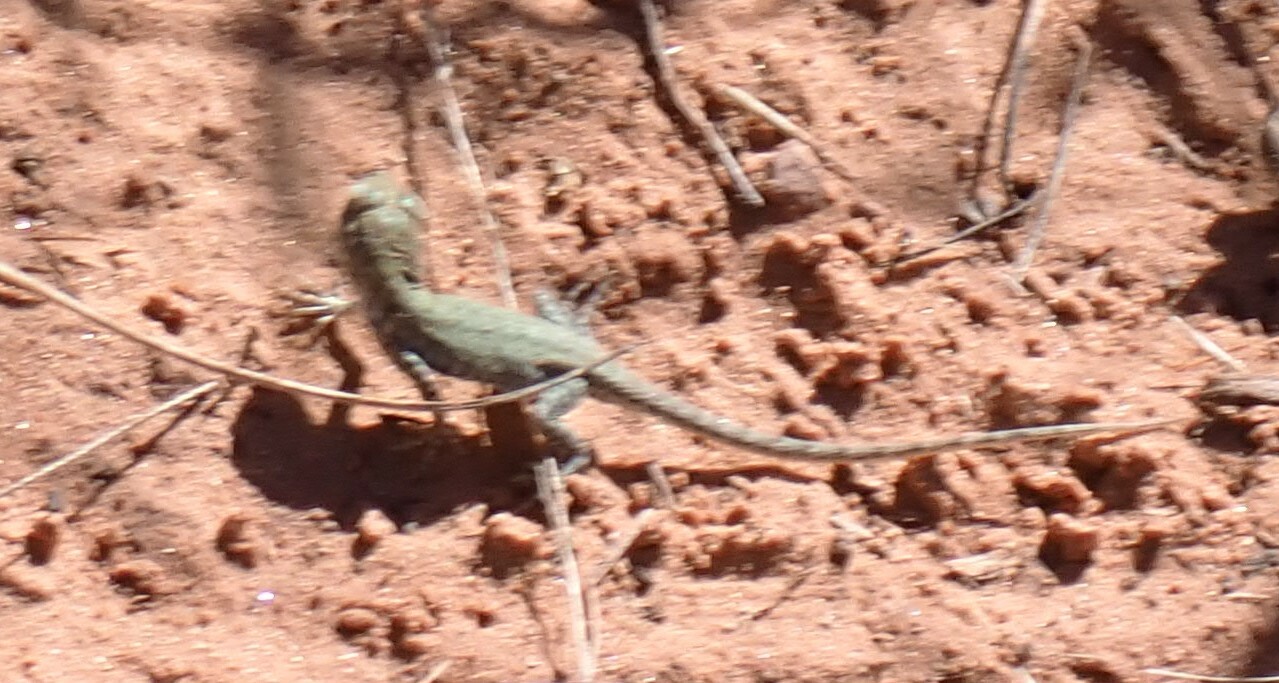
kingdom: Animalia
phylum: Chordata
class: Squamata
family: Phrynosomatidae
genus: Uta
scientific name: Uta stansburiana
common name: Side-blotched lizard
